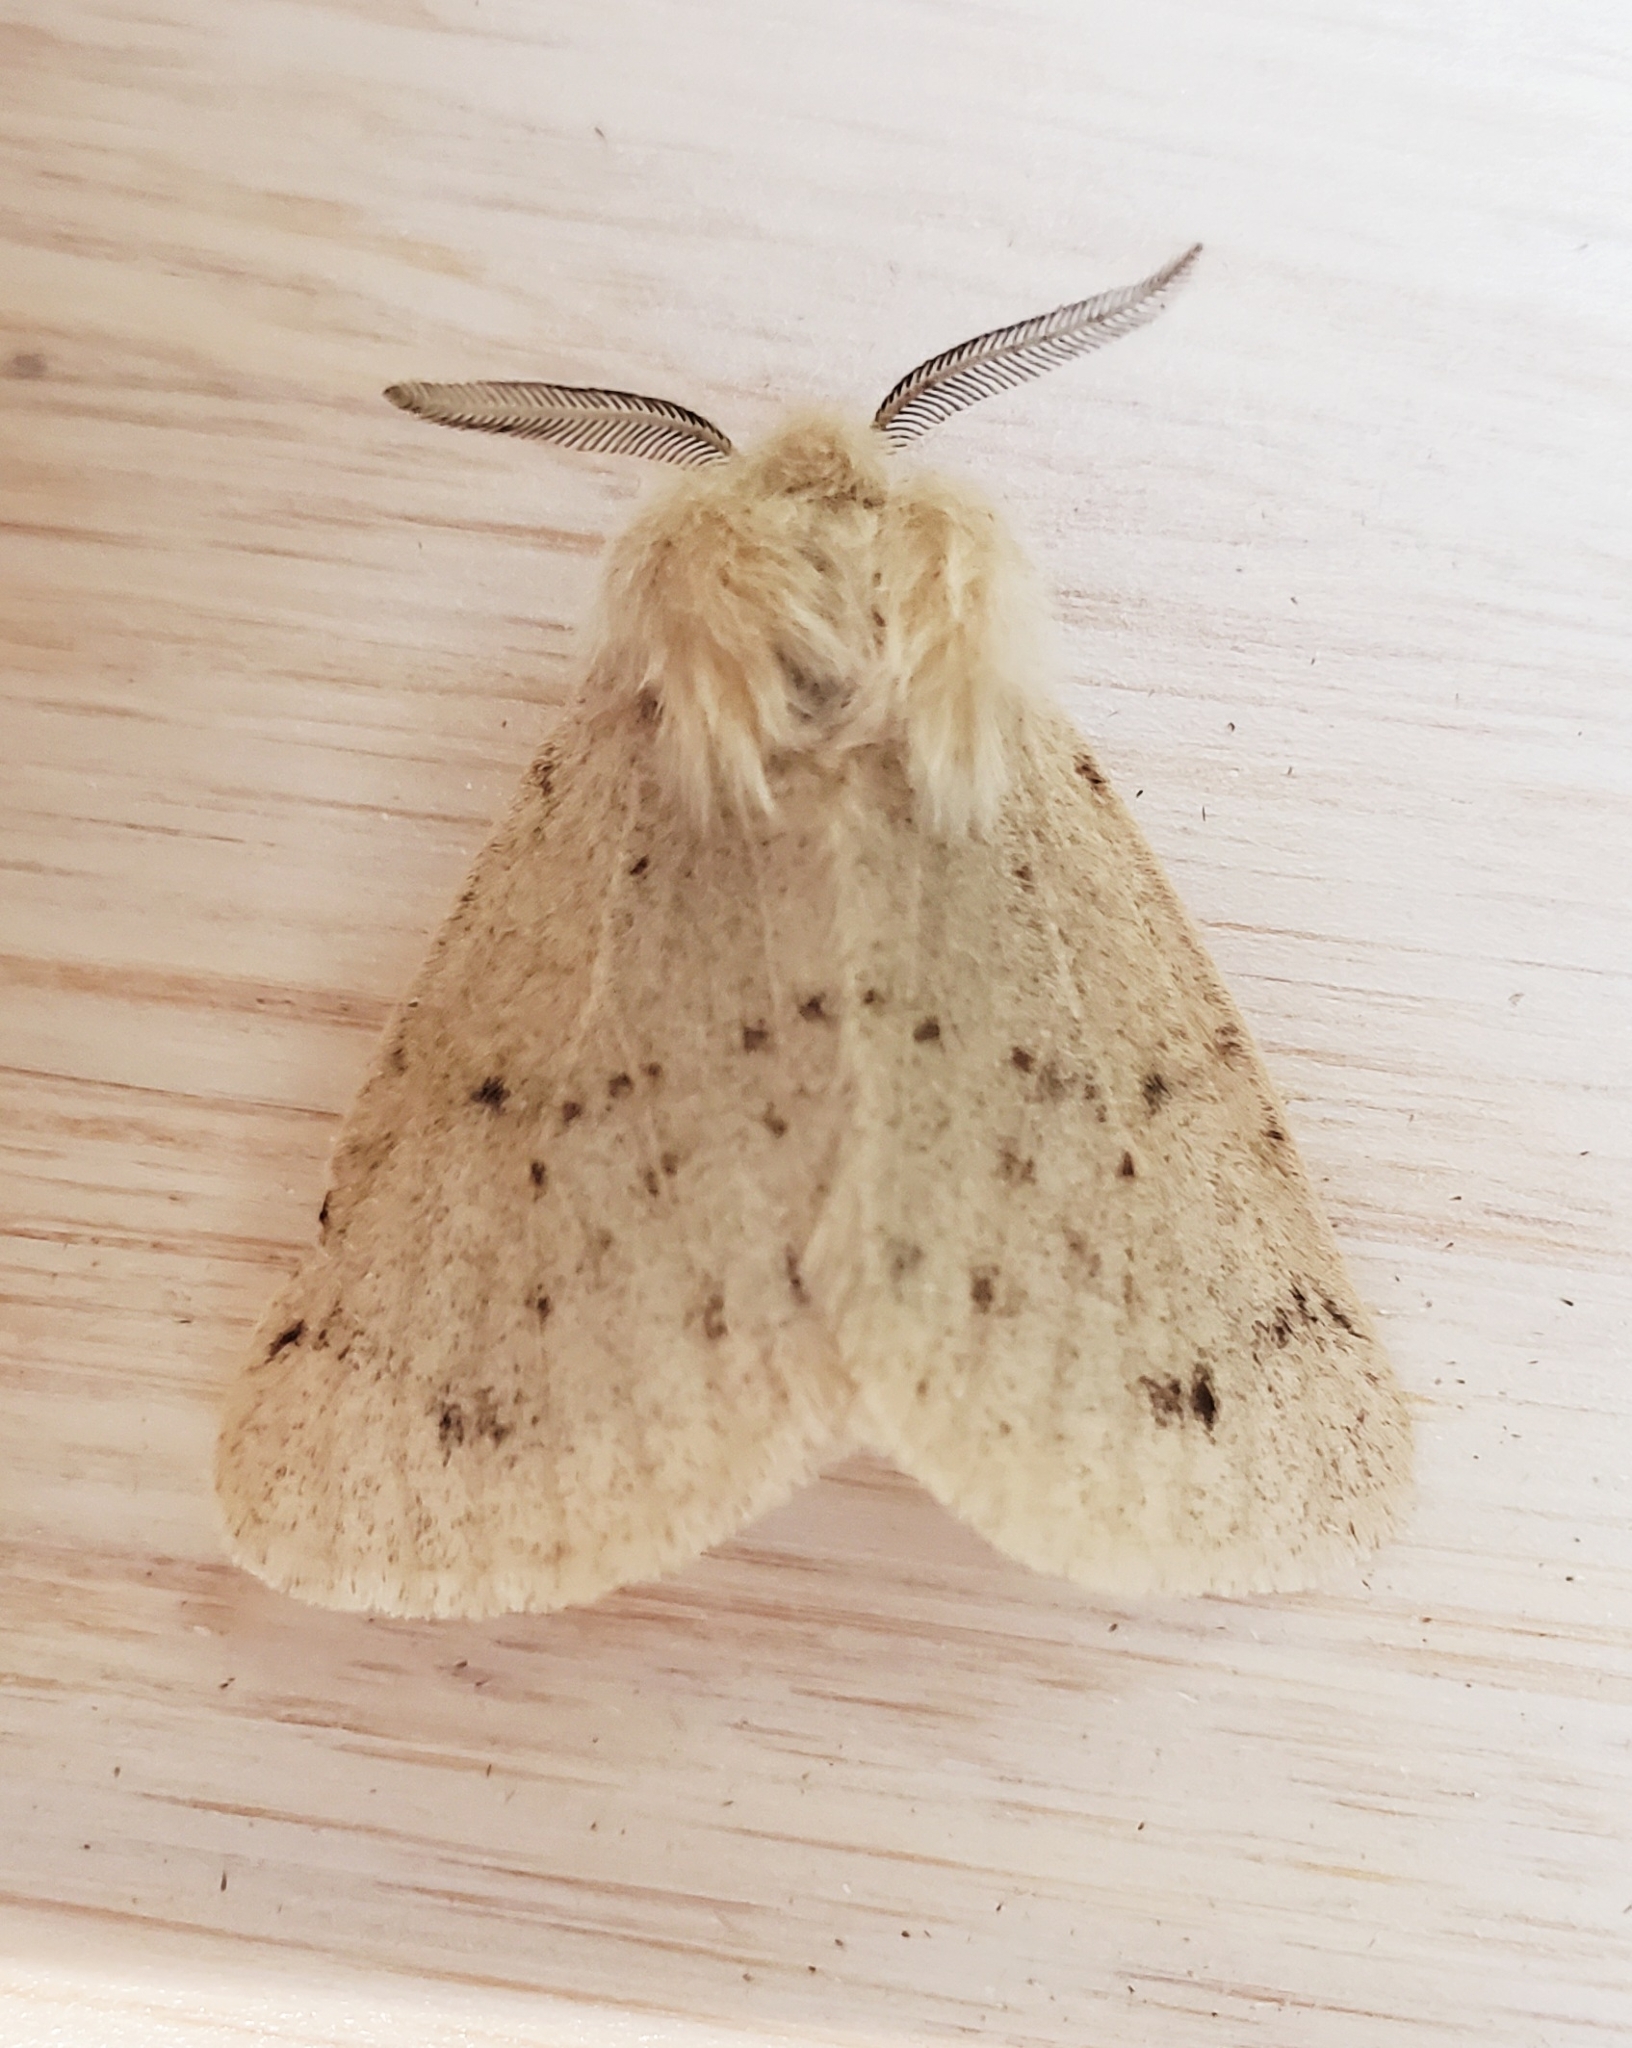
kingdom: Animalia
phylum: Arthropoda
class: Insecta
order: Lepidoptera
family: Erebidae
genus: Spilosoma
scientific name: Spilosoma vagans
